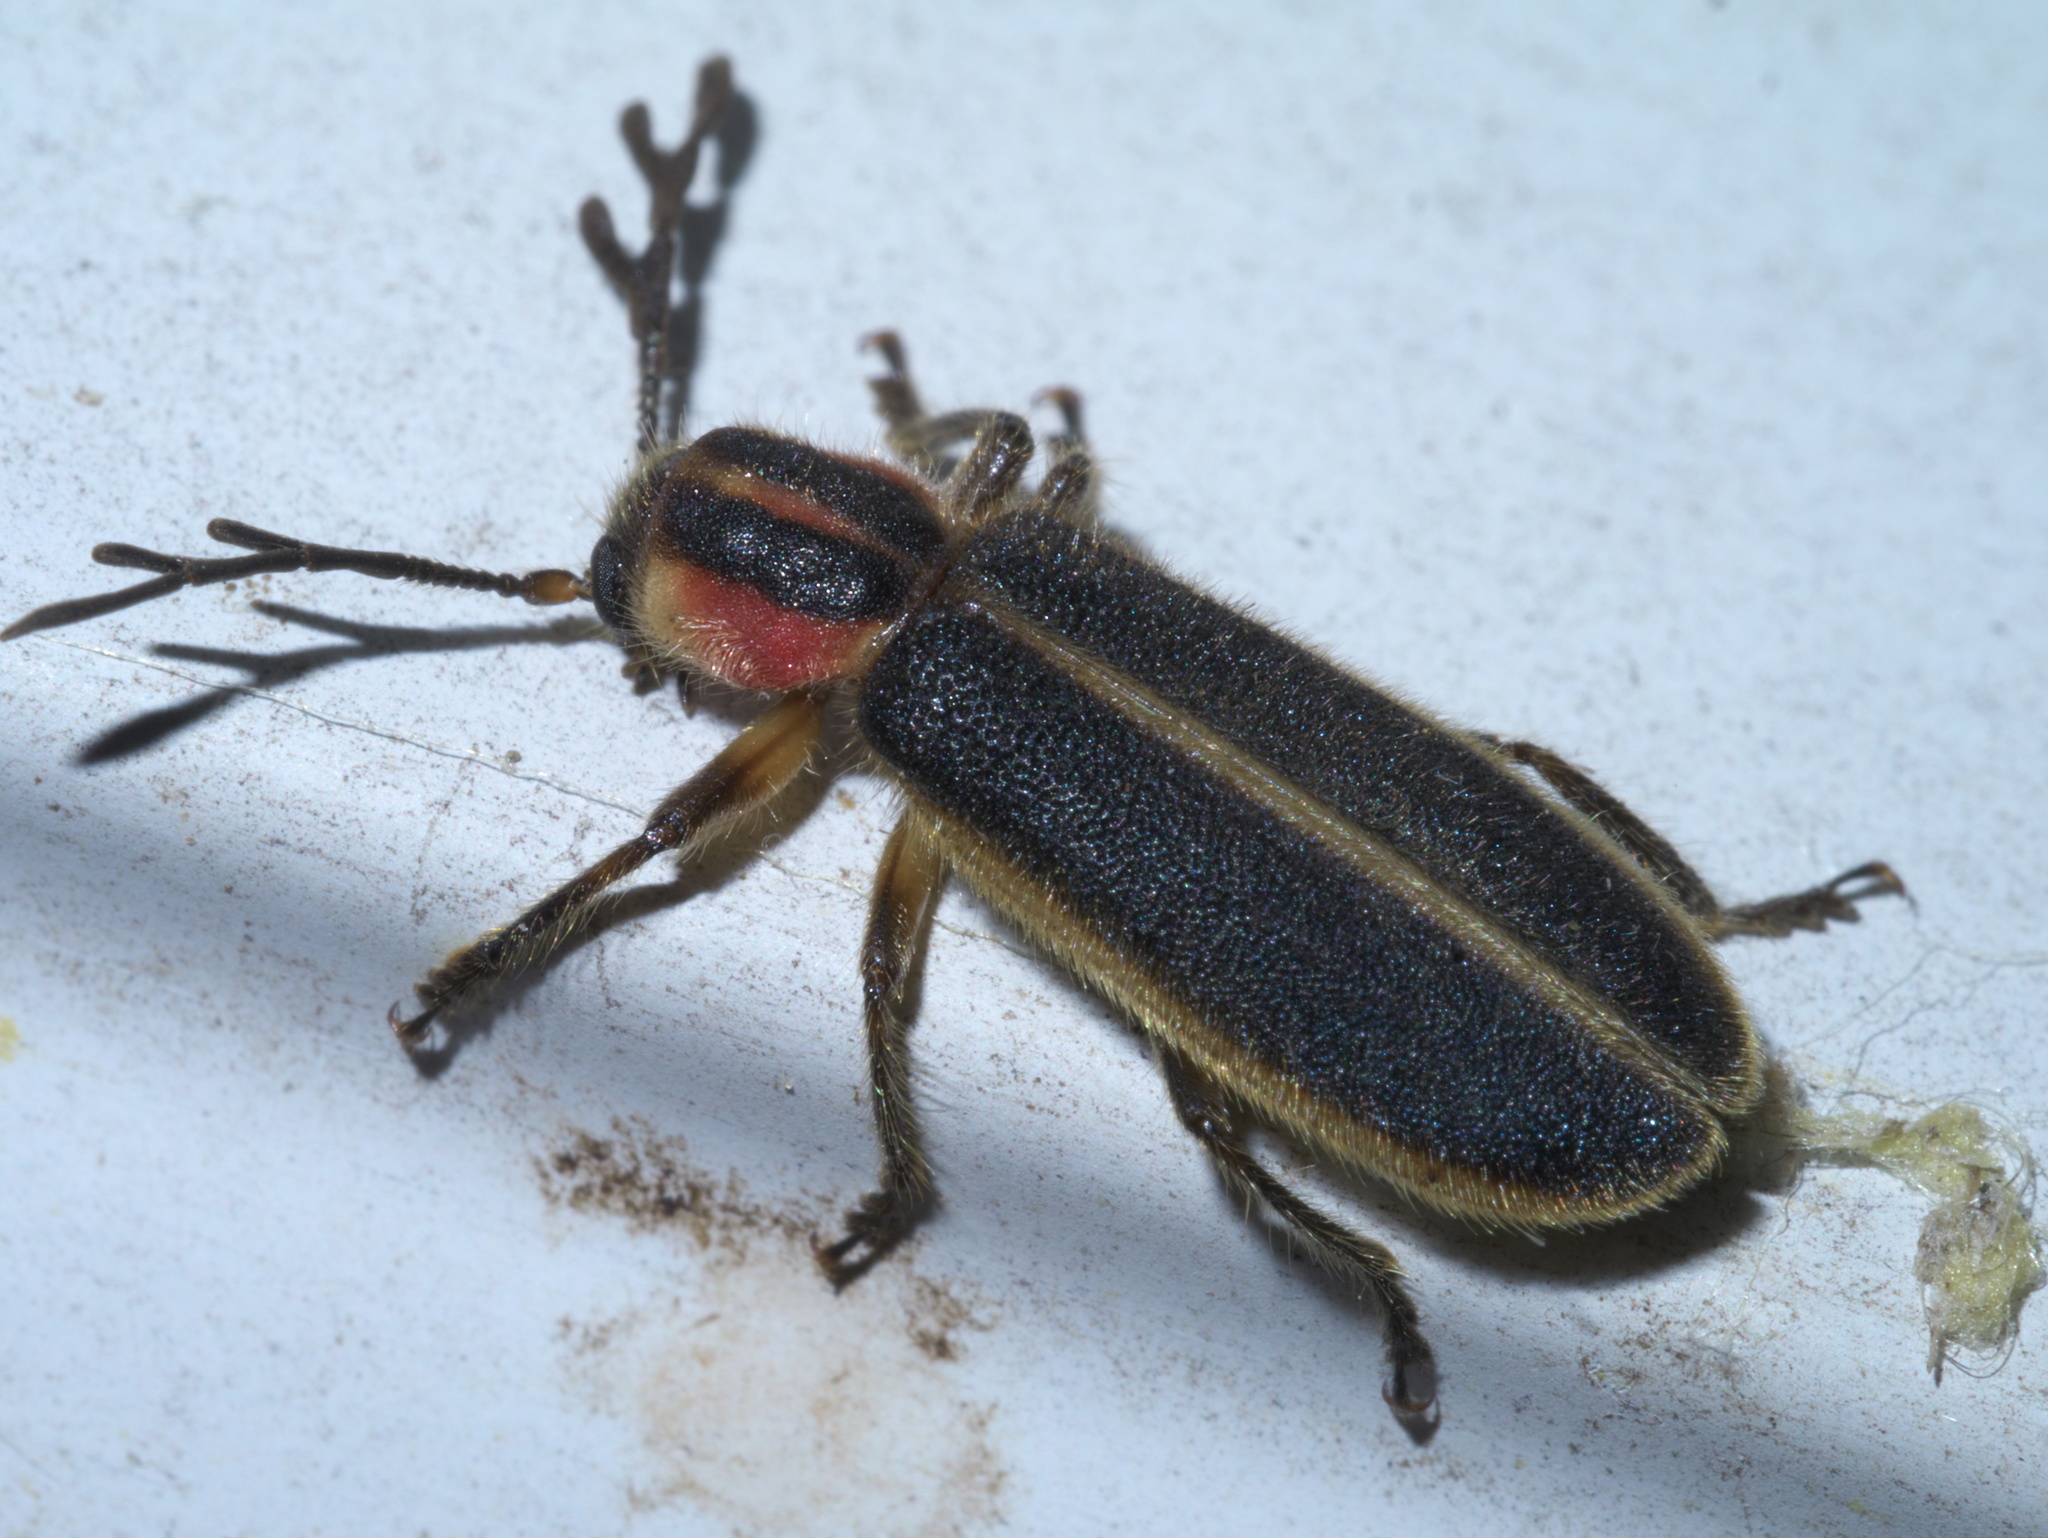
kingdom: Animalia
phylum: Arthropoda
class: Insecta
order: Coleoptera
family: Cleridae
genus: Chariessa
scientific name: Chariessa pilosa
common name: Pilose checkered beetle
